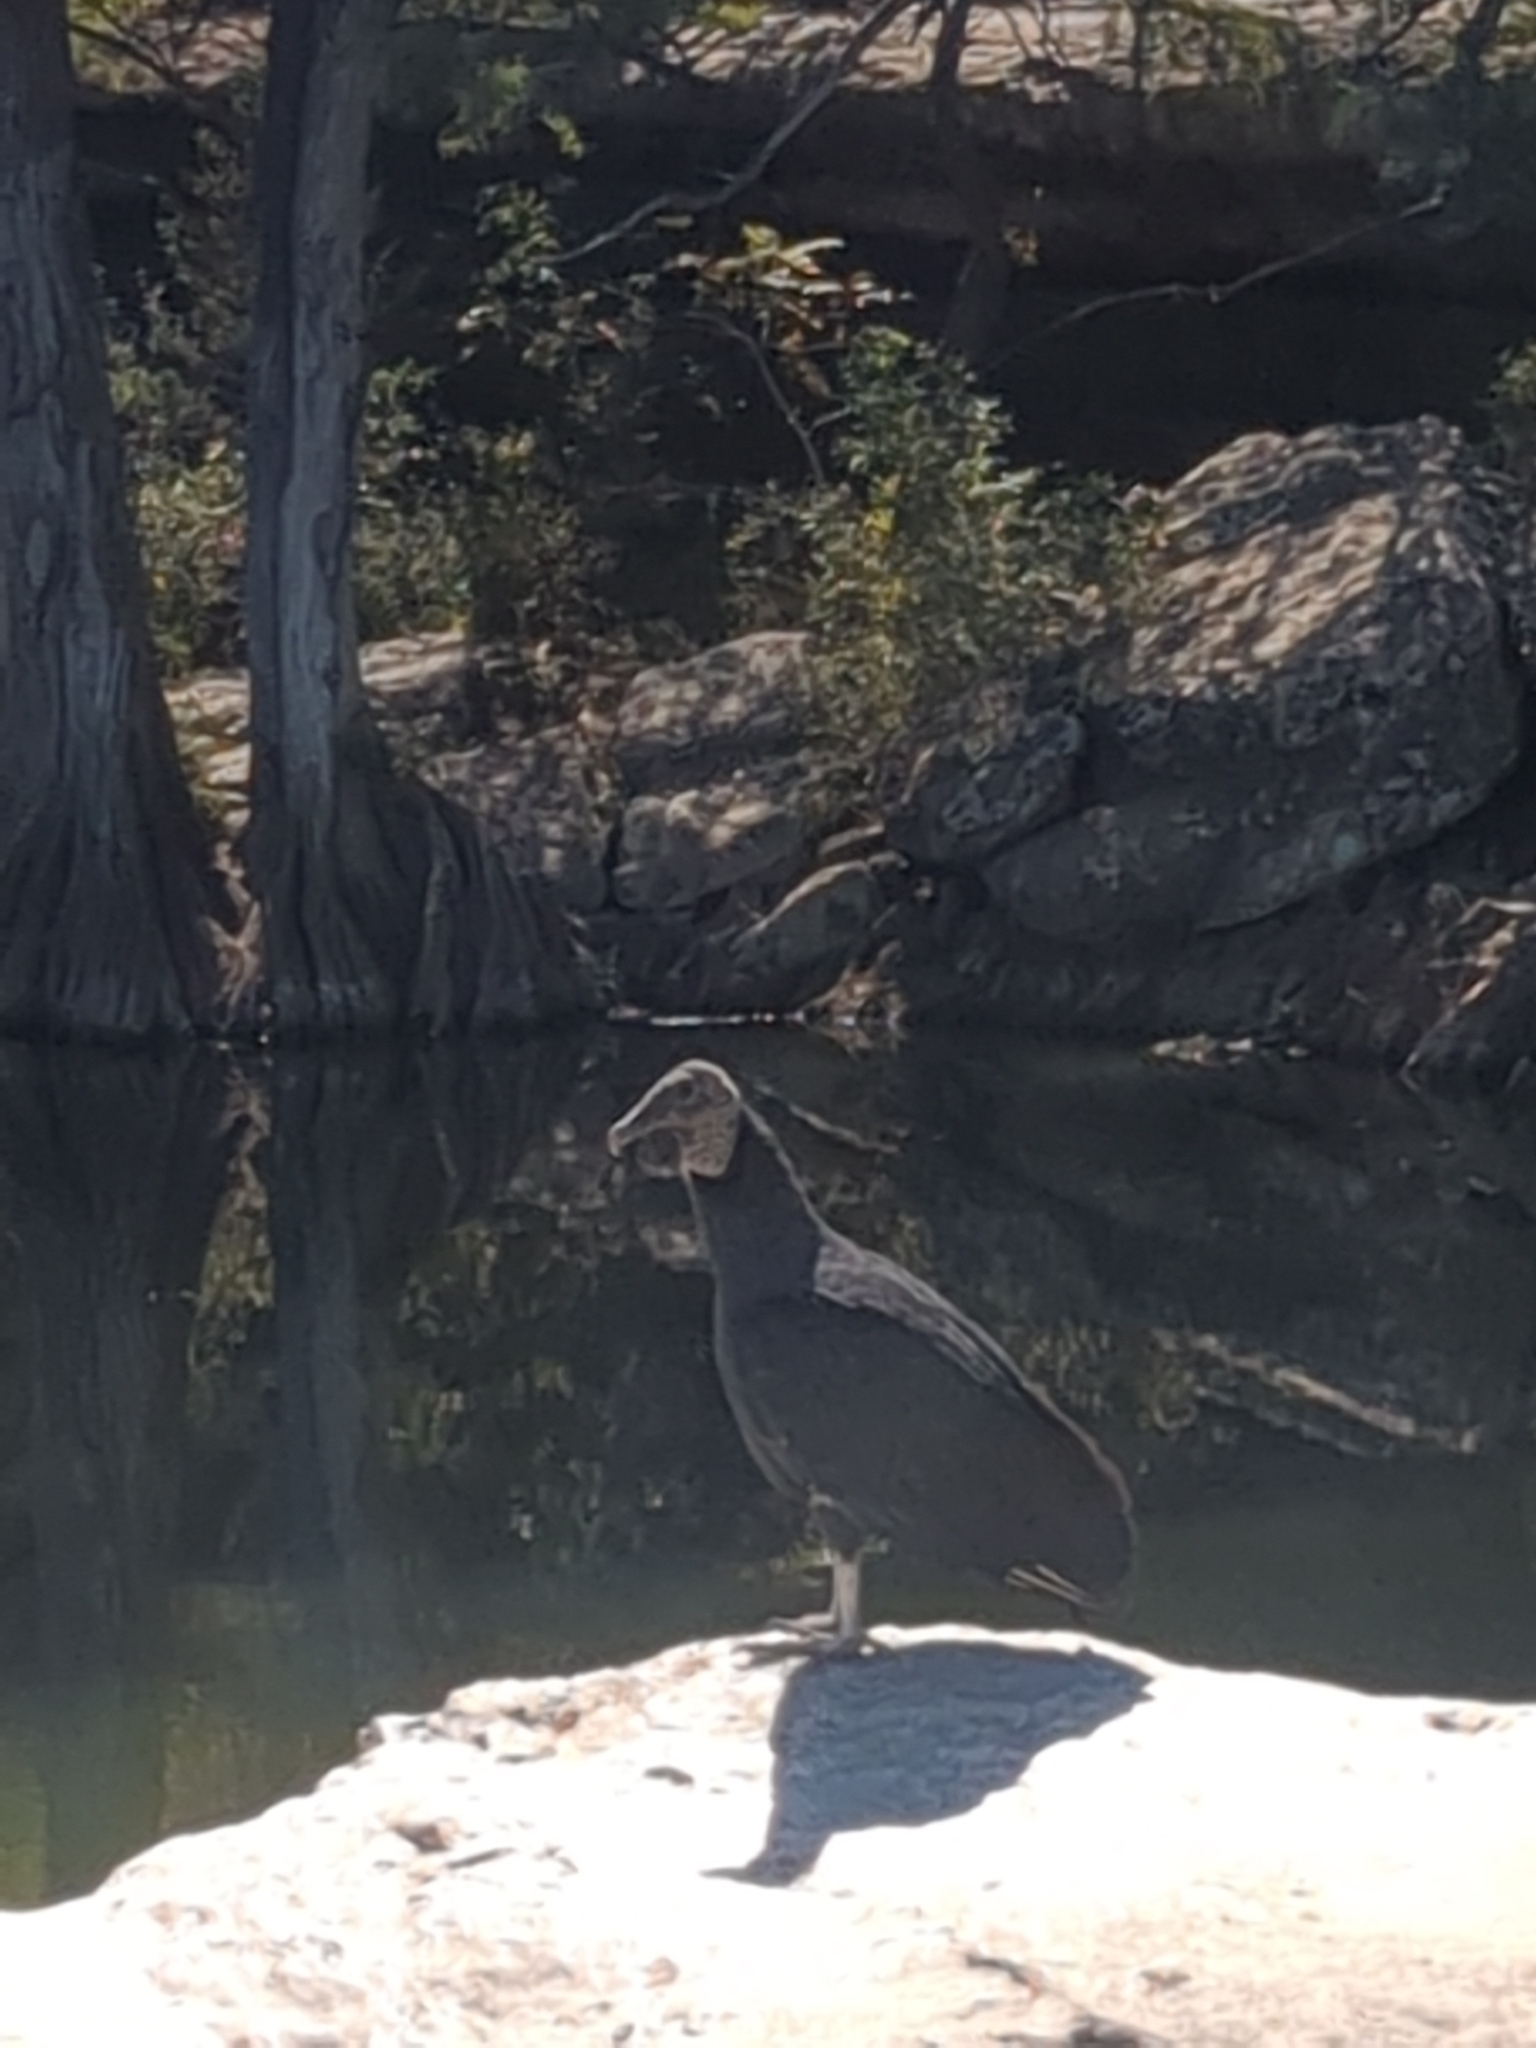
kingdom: Animalia
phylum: Chordata
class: Aves
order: Accipitriformes
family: Cathartidae
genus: Coragyps
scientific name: Coragyps atratus
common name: Black vulture
